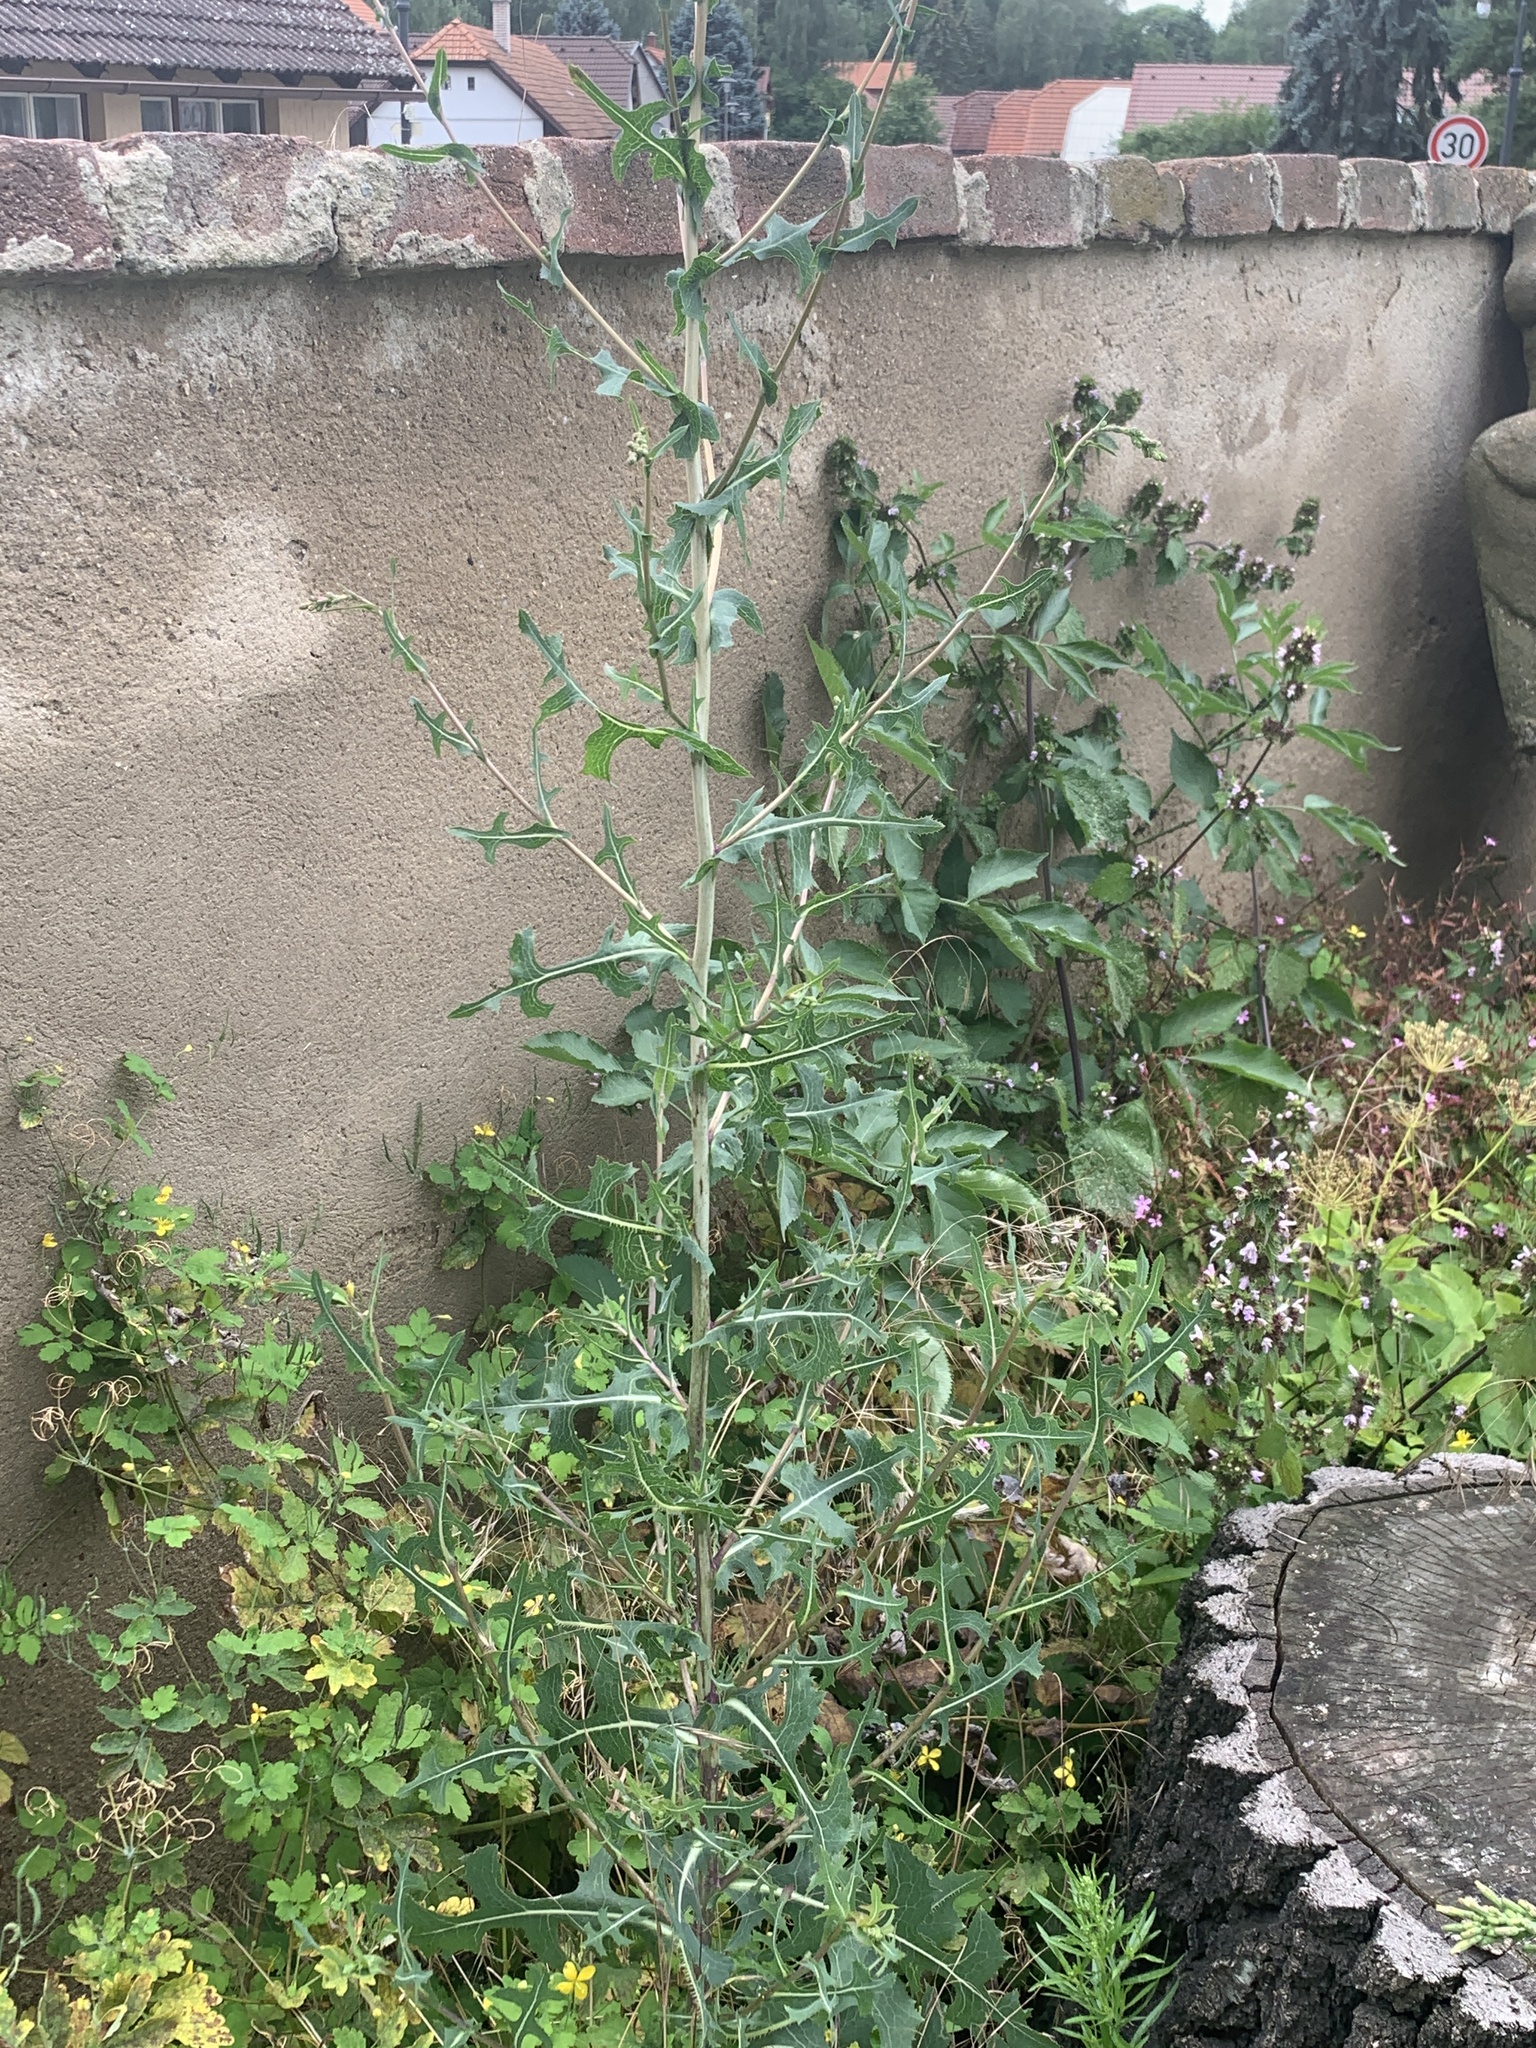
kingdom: Plantae
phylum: Tracheophyta
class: Magnoliopsida
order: Asterales
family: Asteraceae
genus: Lactuca
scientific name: Lactuca serriola
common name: Prickly lettuce
